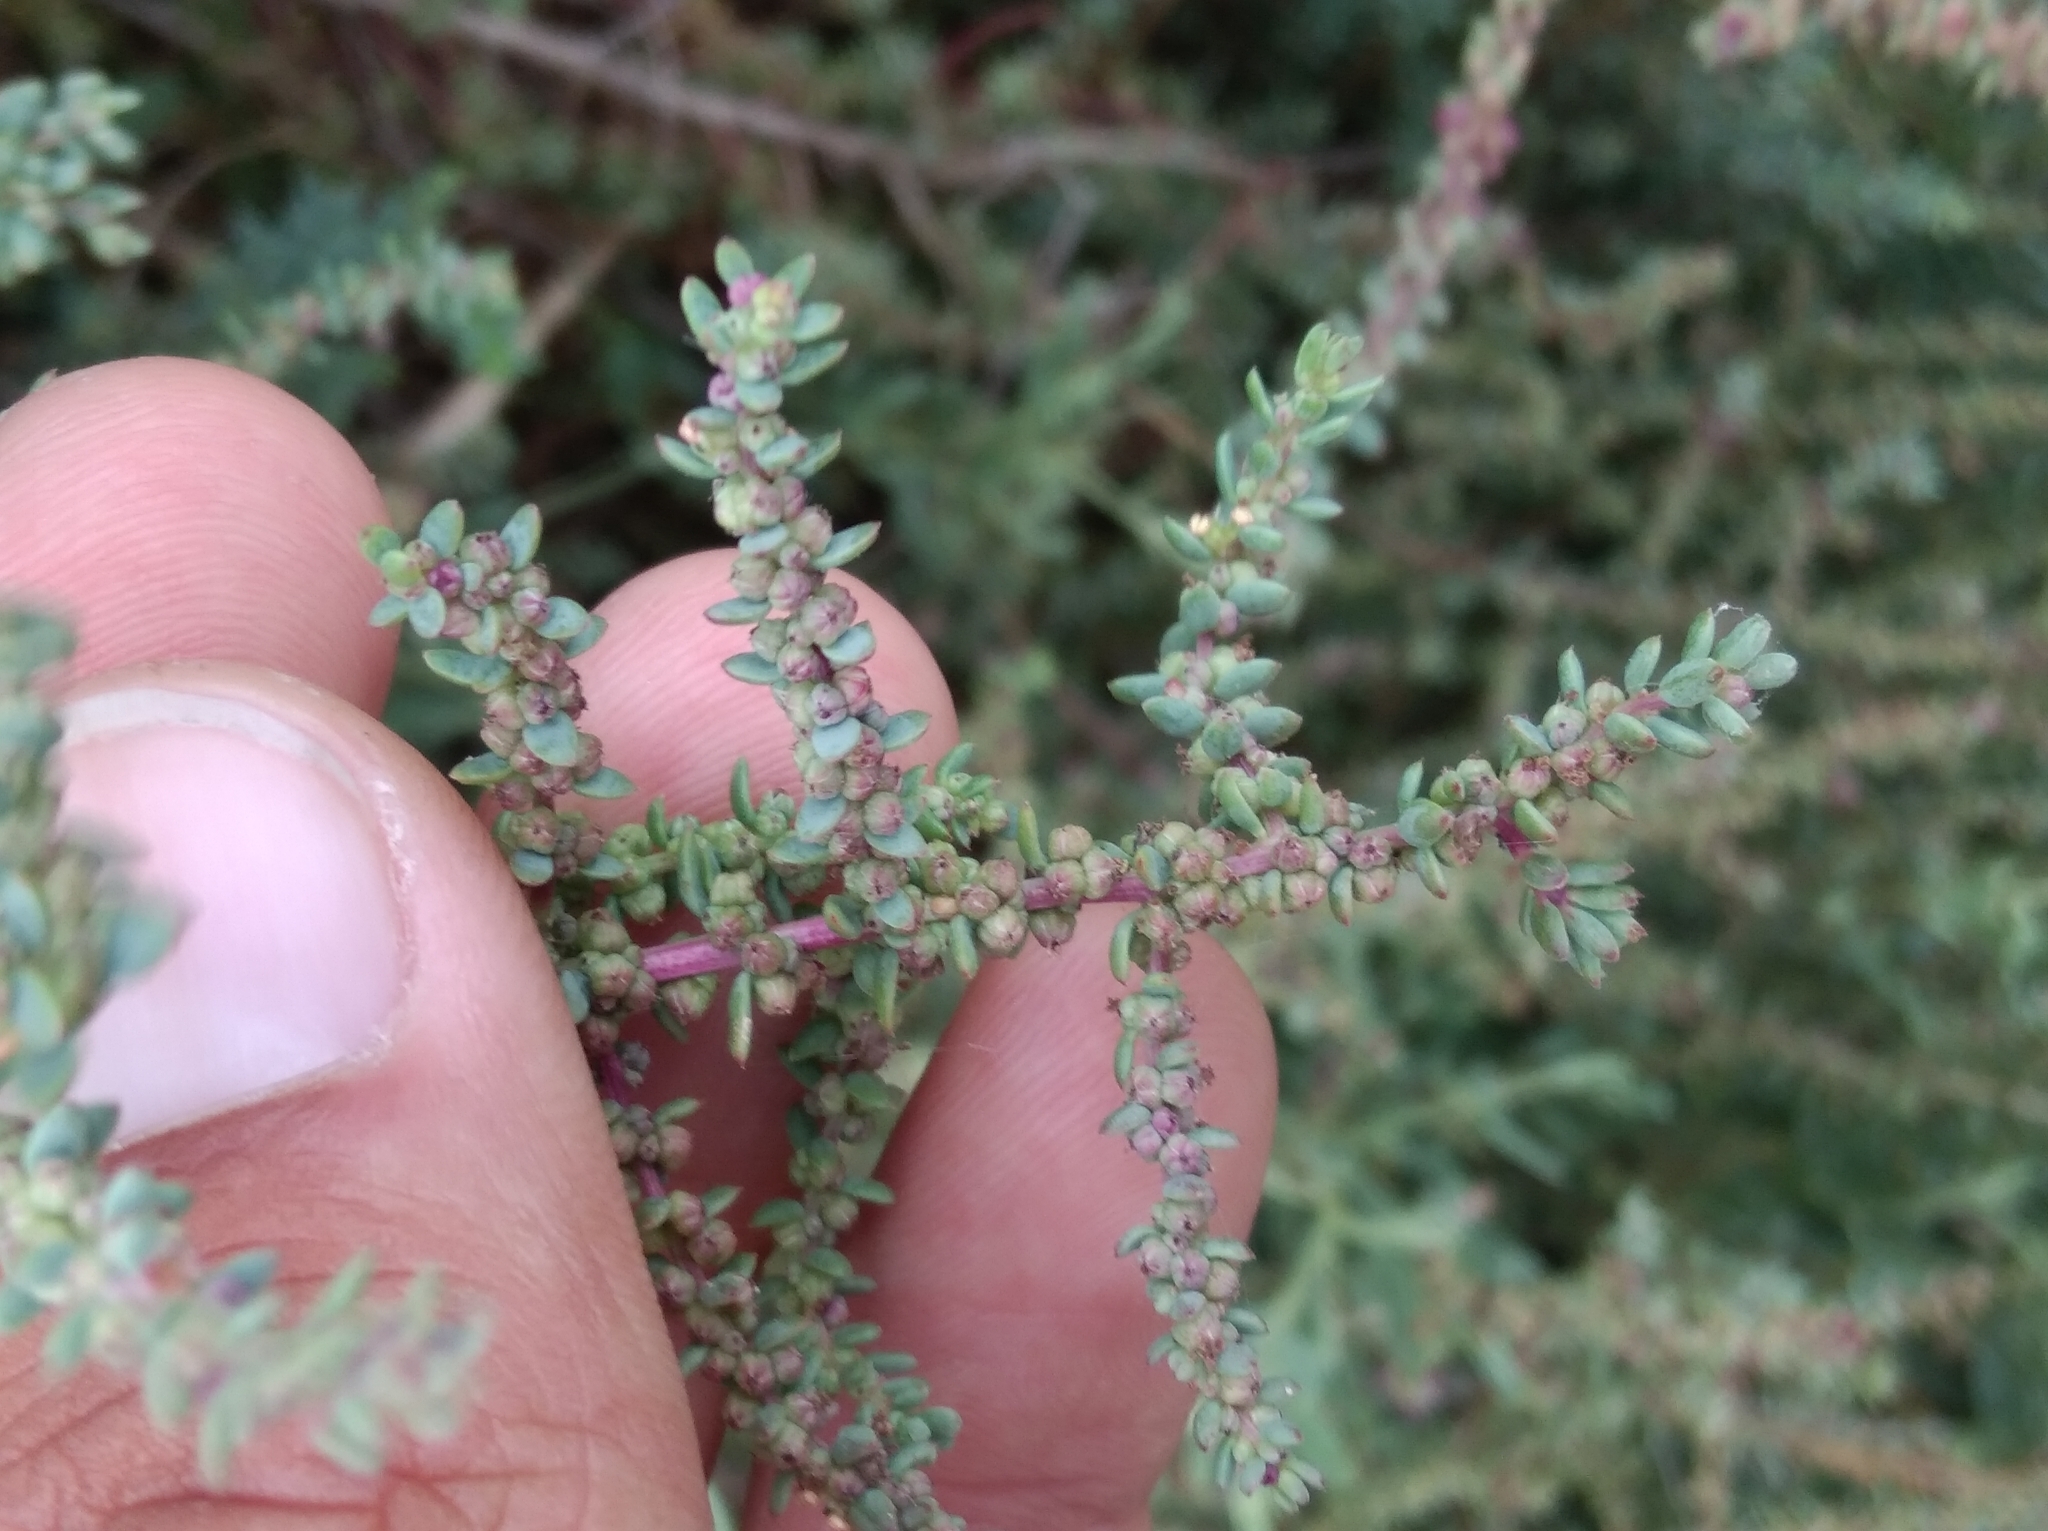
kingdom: Plantae
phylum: Tracheophyta
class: Magnoliopsida
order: Caryophyllales
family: Amaranthaceae
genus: Suaeda
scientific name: Suaeda vera
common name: Shrubby sea-blite
